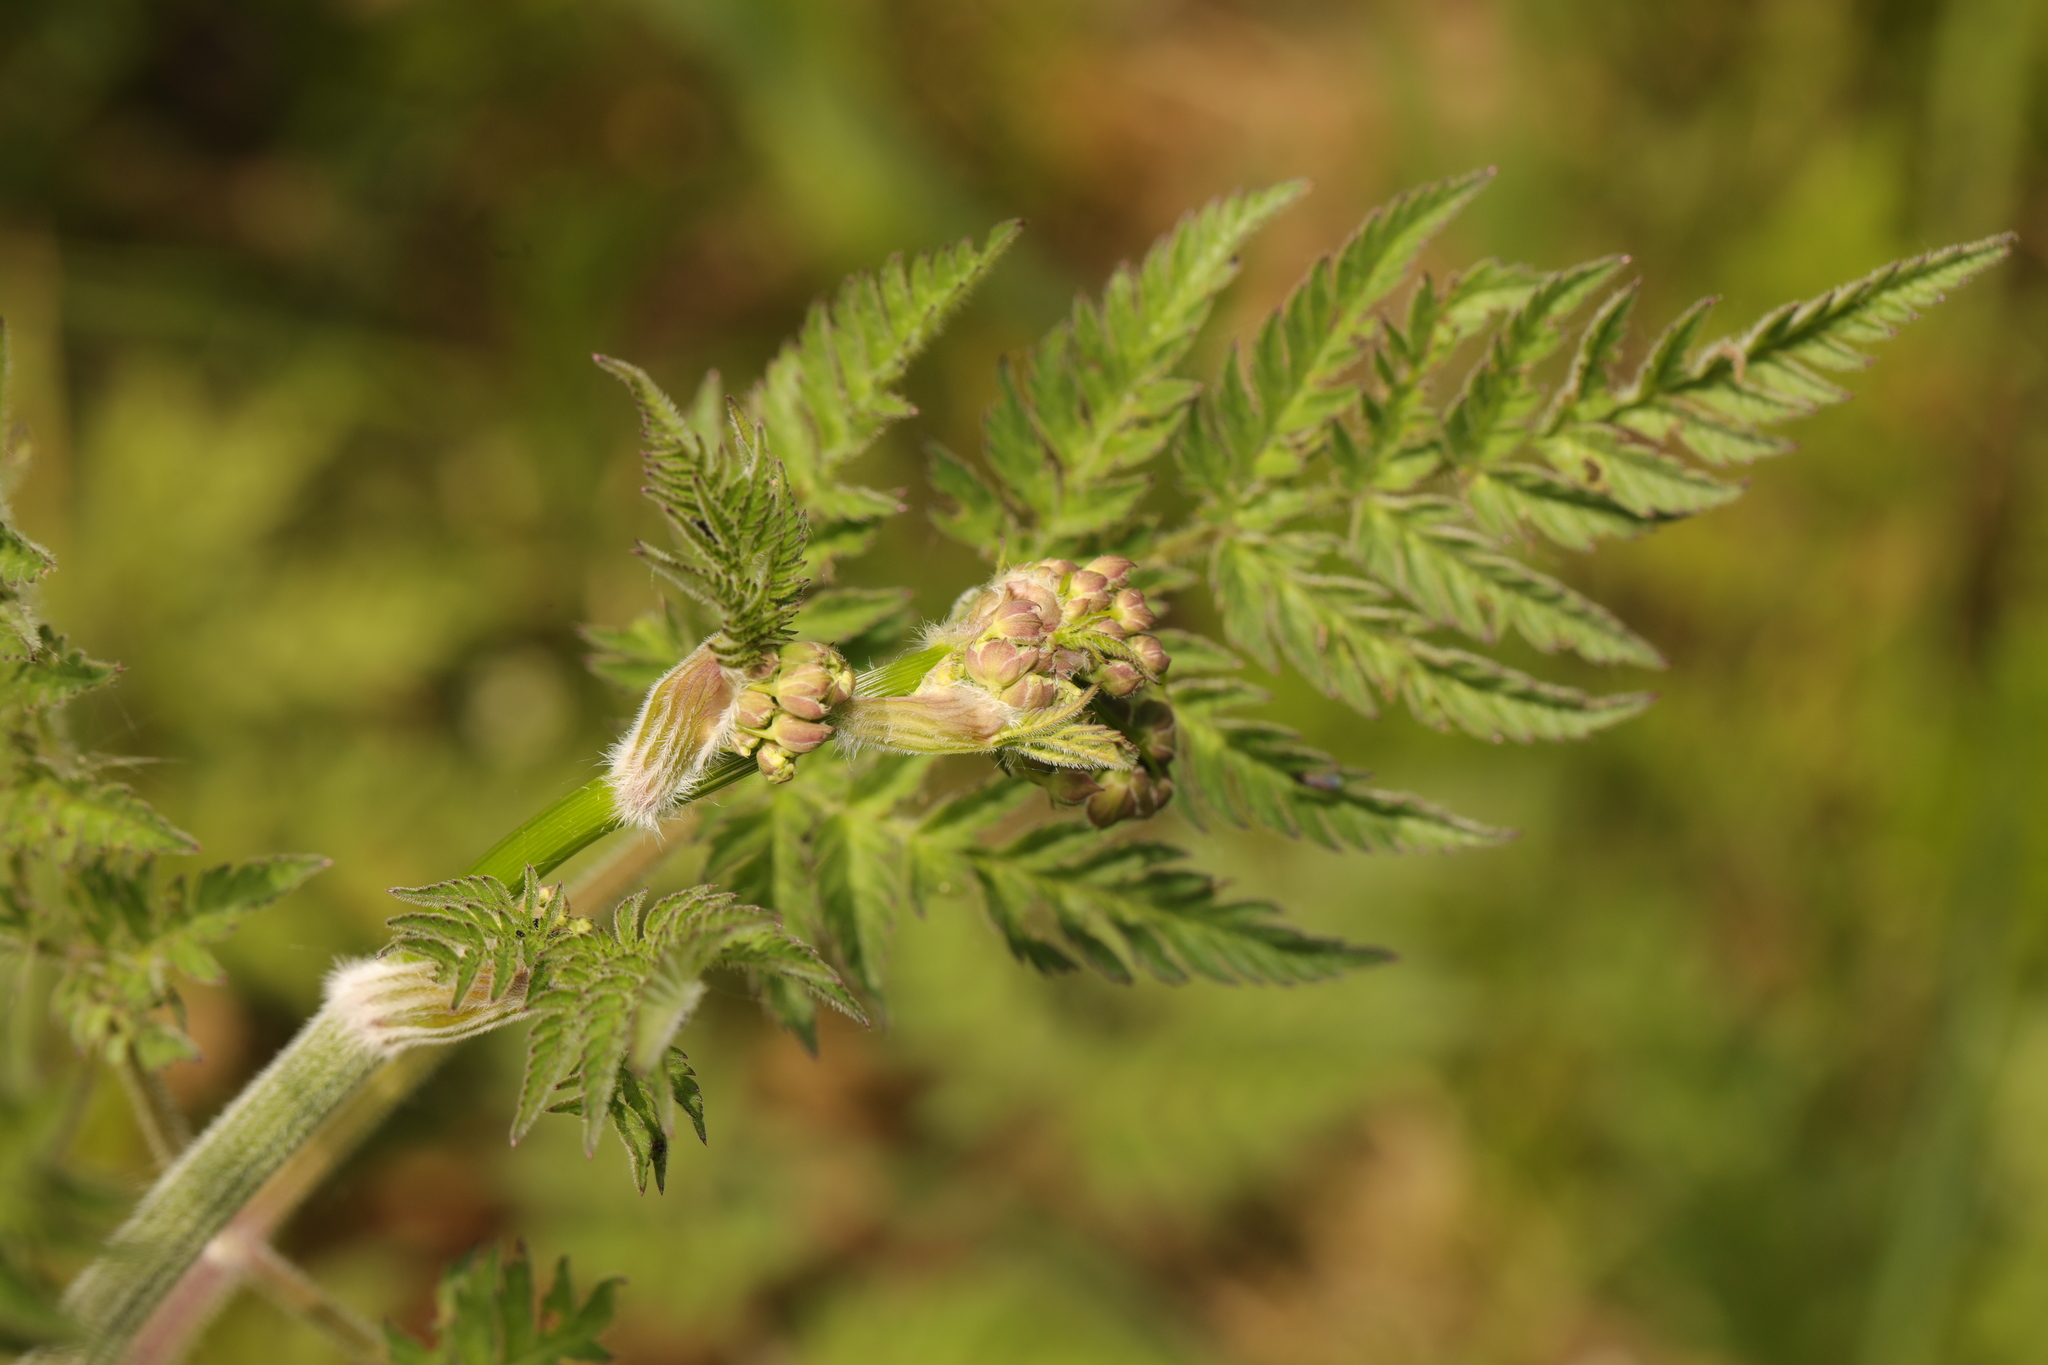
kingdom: Plantae
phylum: Tracheophyta
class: Magnoliopsida
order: Apiales
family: Apiaceae
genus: Anthriscus
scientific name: Anthriscus sylvestris
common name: Cow parsley
